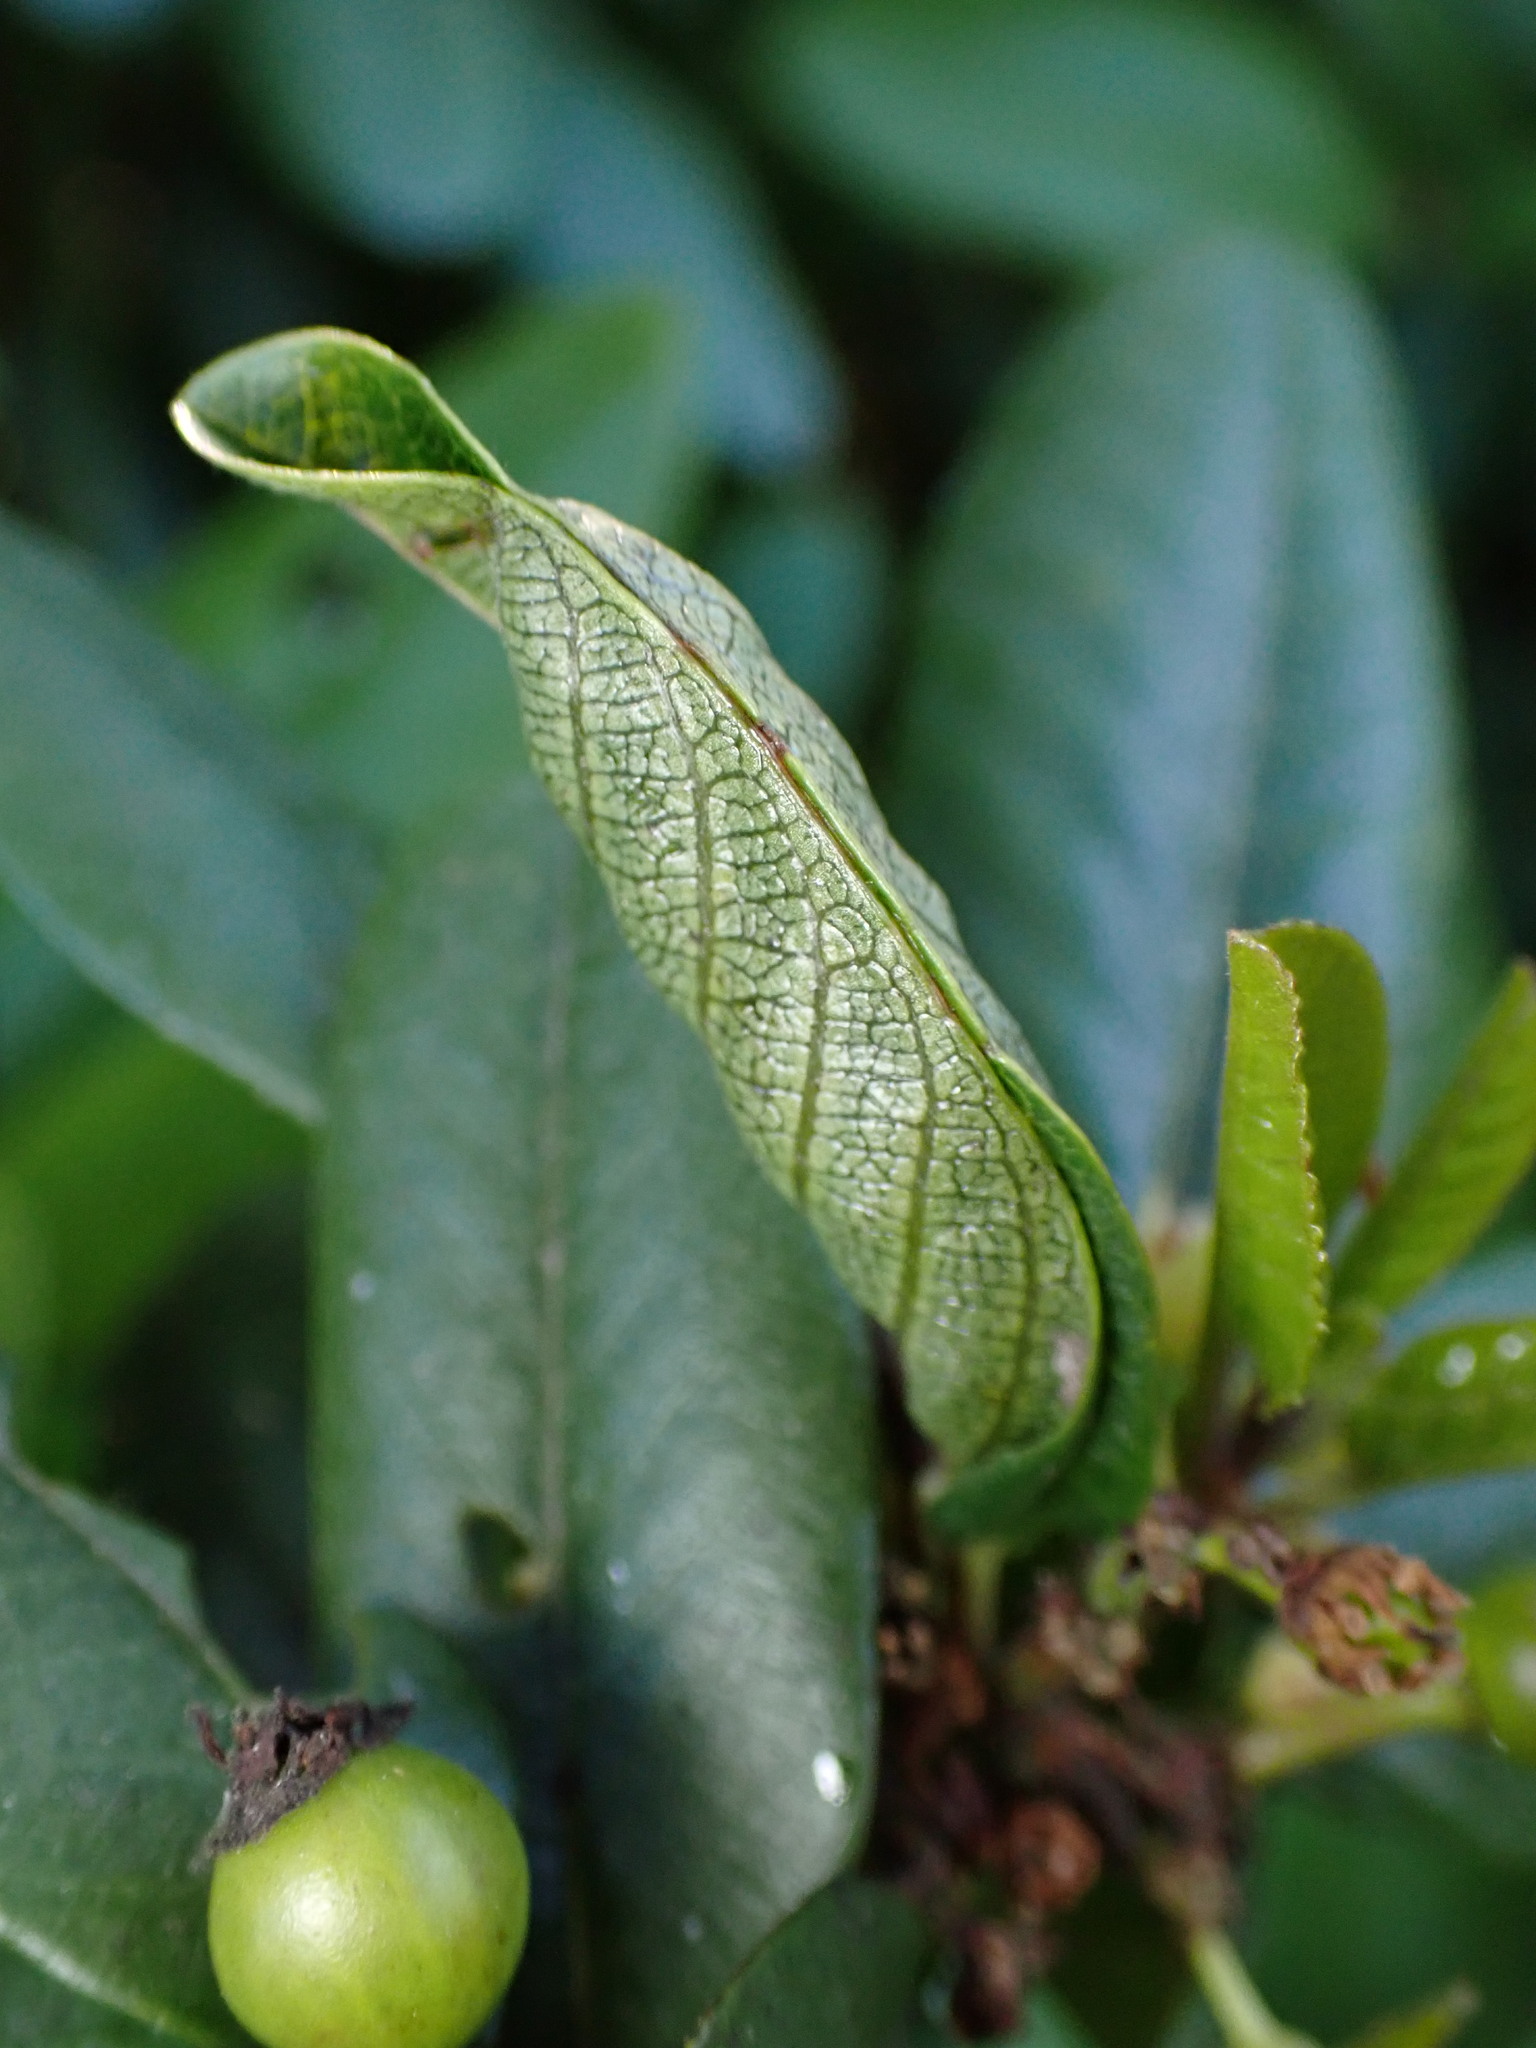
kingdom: Animalia
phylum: Arthropoda
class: Insecta
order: Lepidoptera
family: Cosmopterigidae
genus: Sorhagenia
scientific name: Sorhagenia nimbosus
